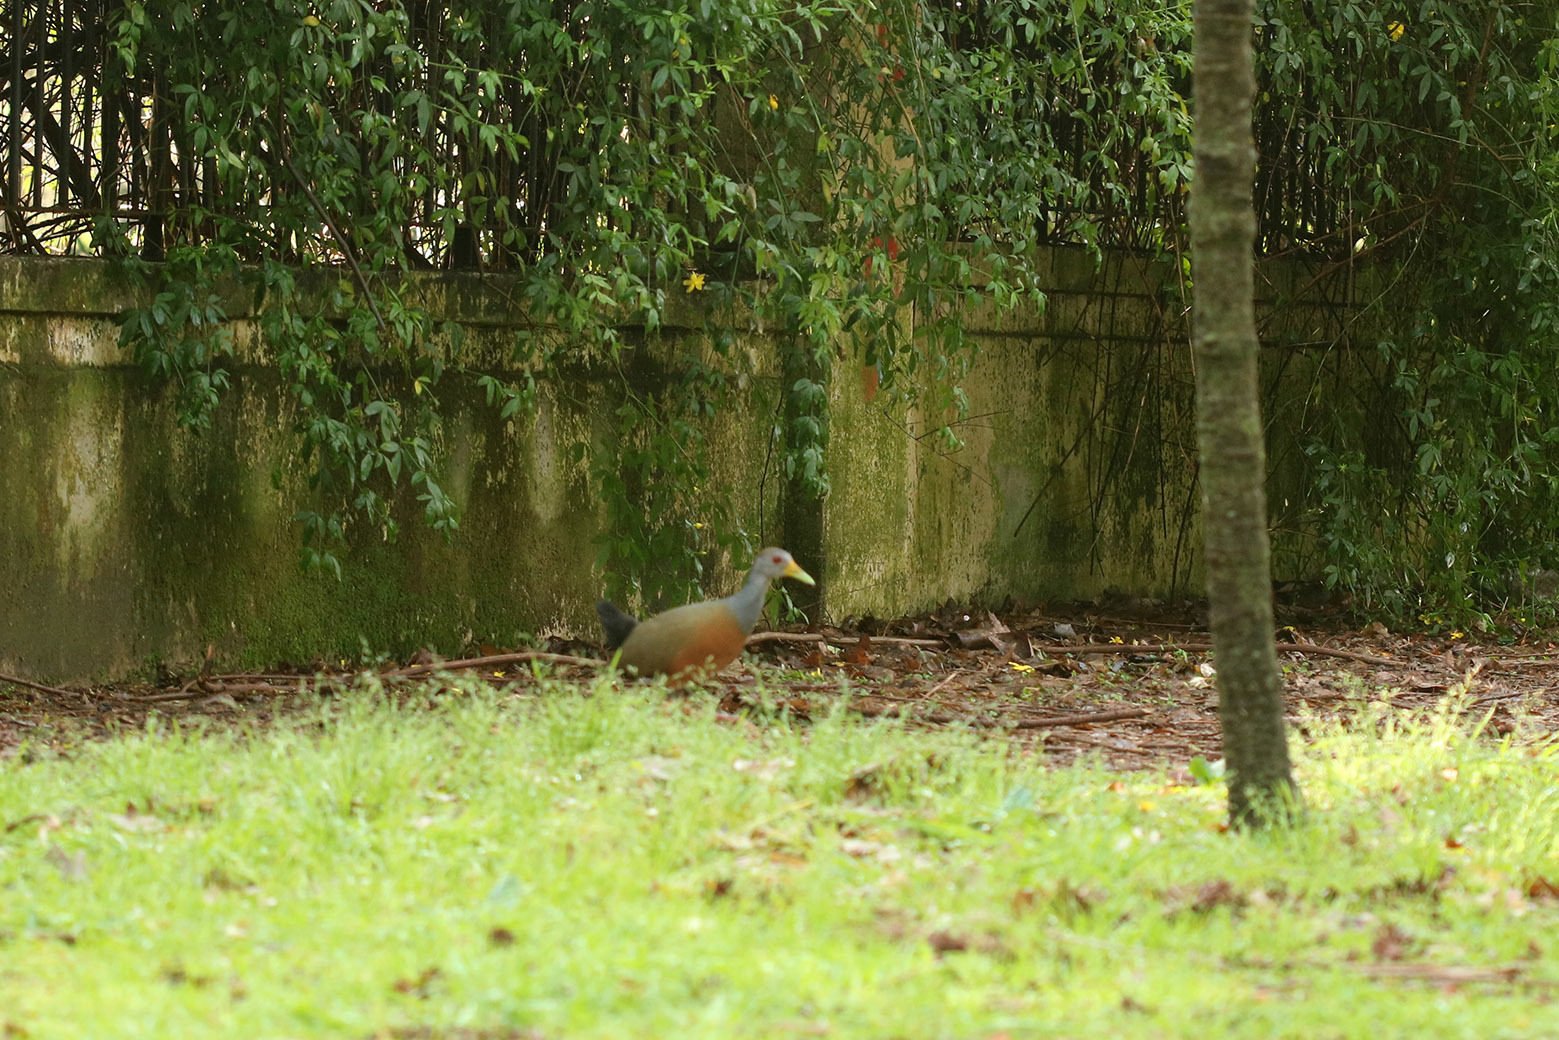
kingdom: Animalia
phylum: Chordata
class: Aves
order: Gruiformes
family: Rallidae
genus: Aramides
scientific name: Aramides cajanea
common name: Gray-necked wood-rail
